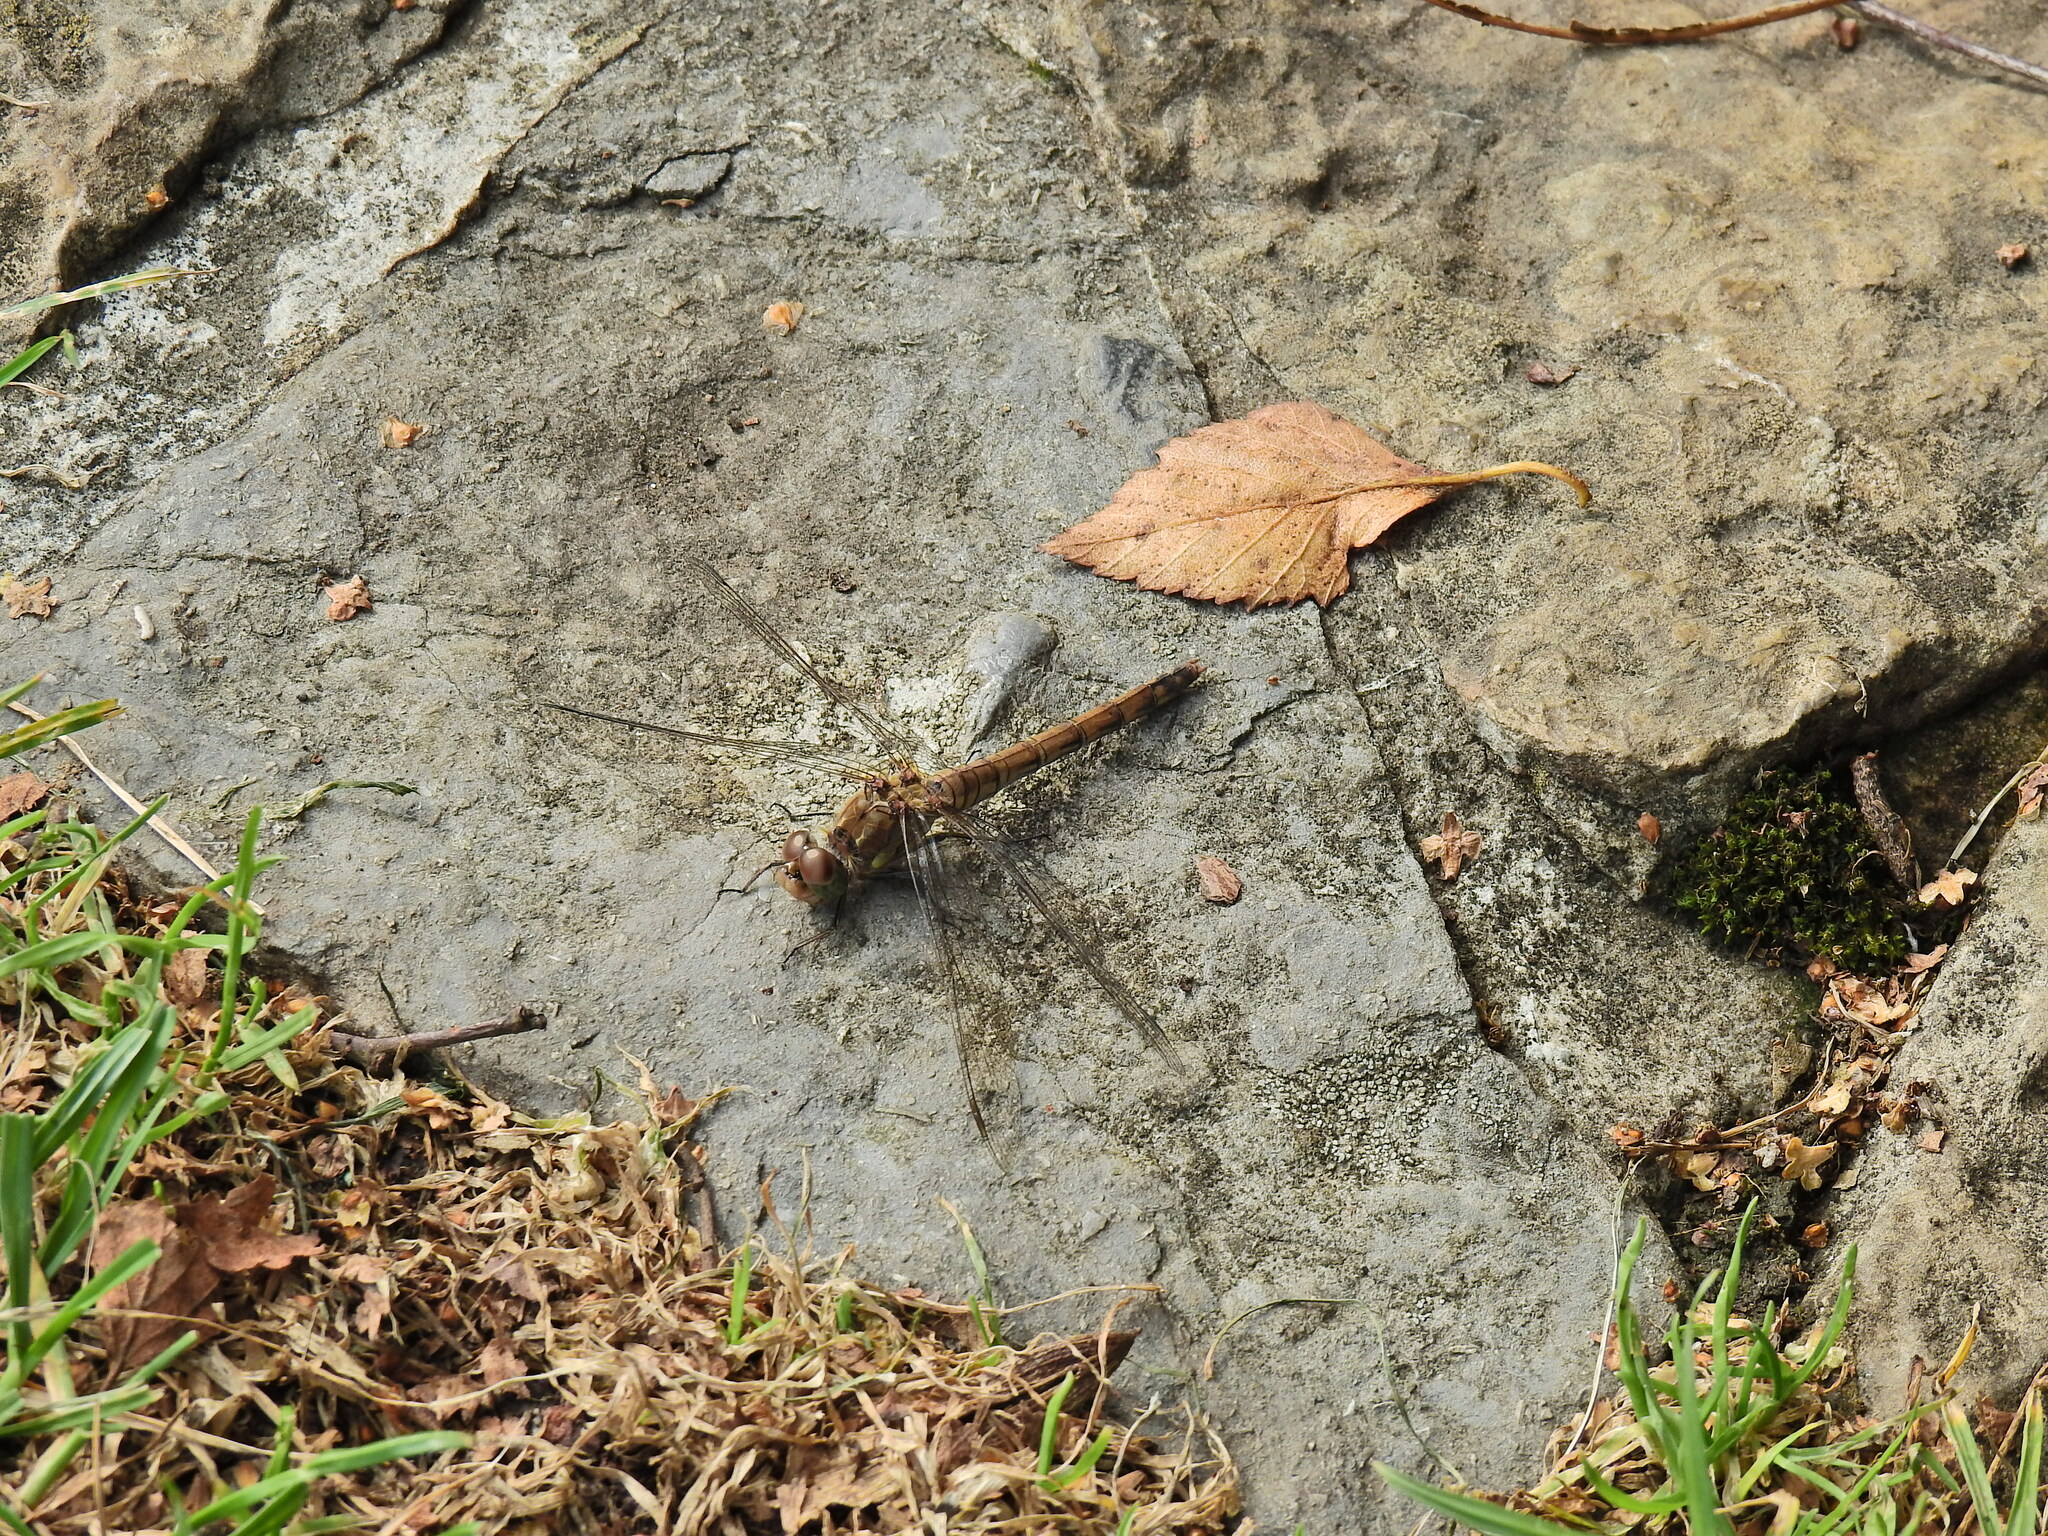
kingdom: Animalia
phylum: Arthropoda
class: Insecta
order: Odonata
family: Libellulidae
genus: Sympetrum
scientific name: Sympetrum striolatum
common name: Common darter
